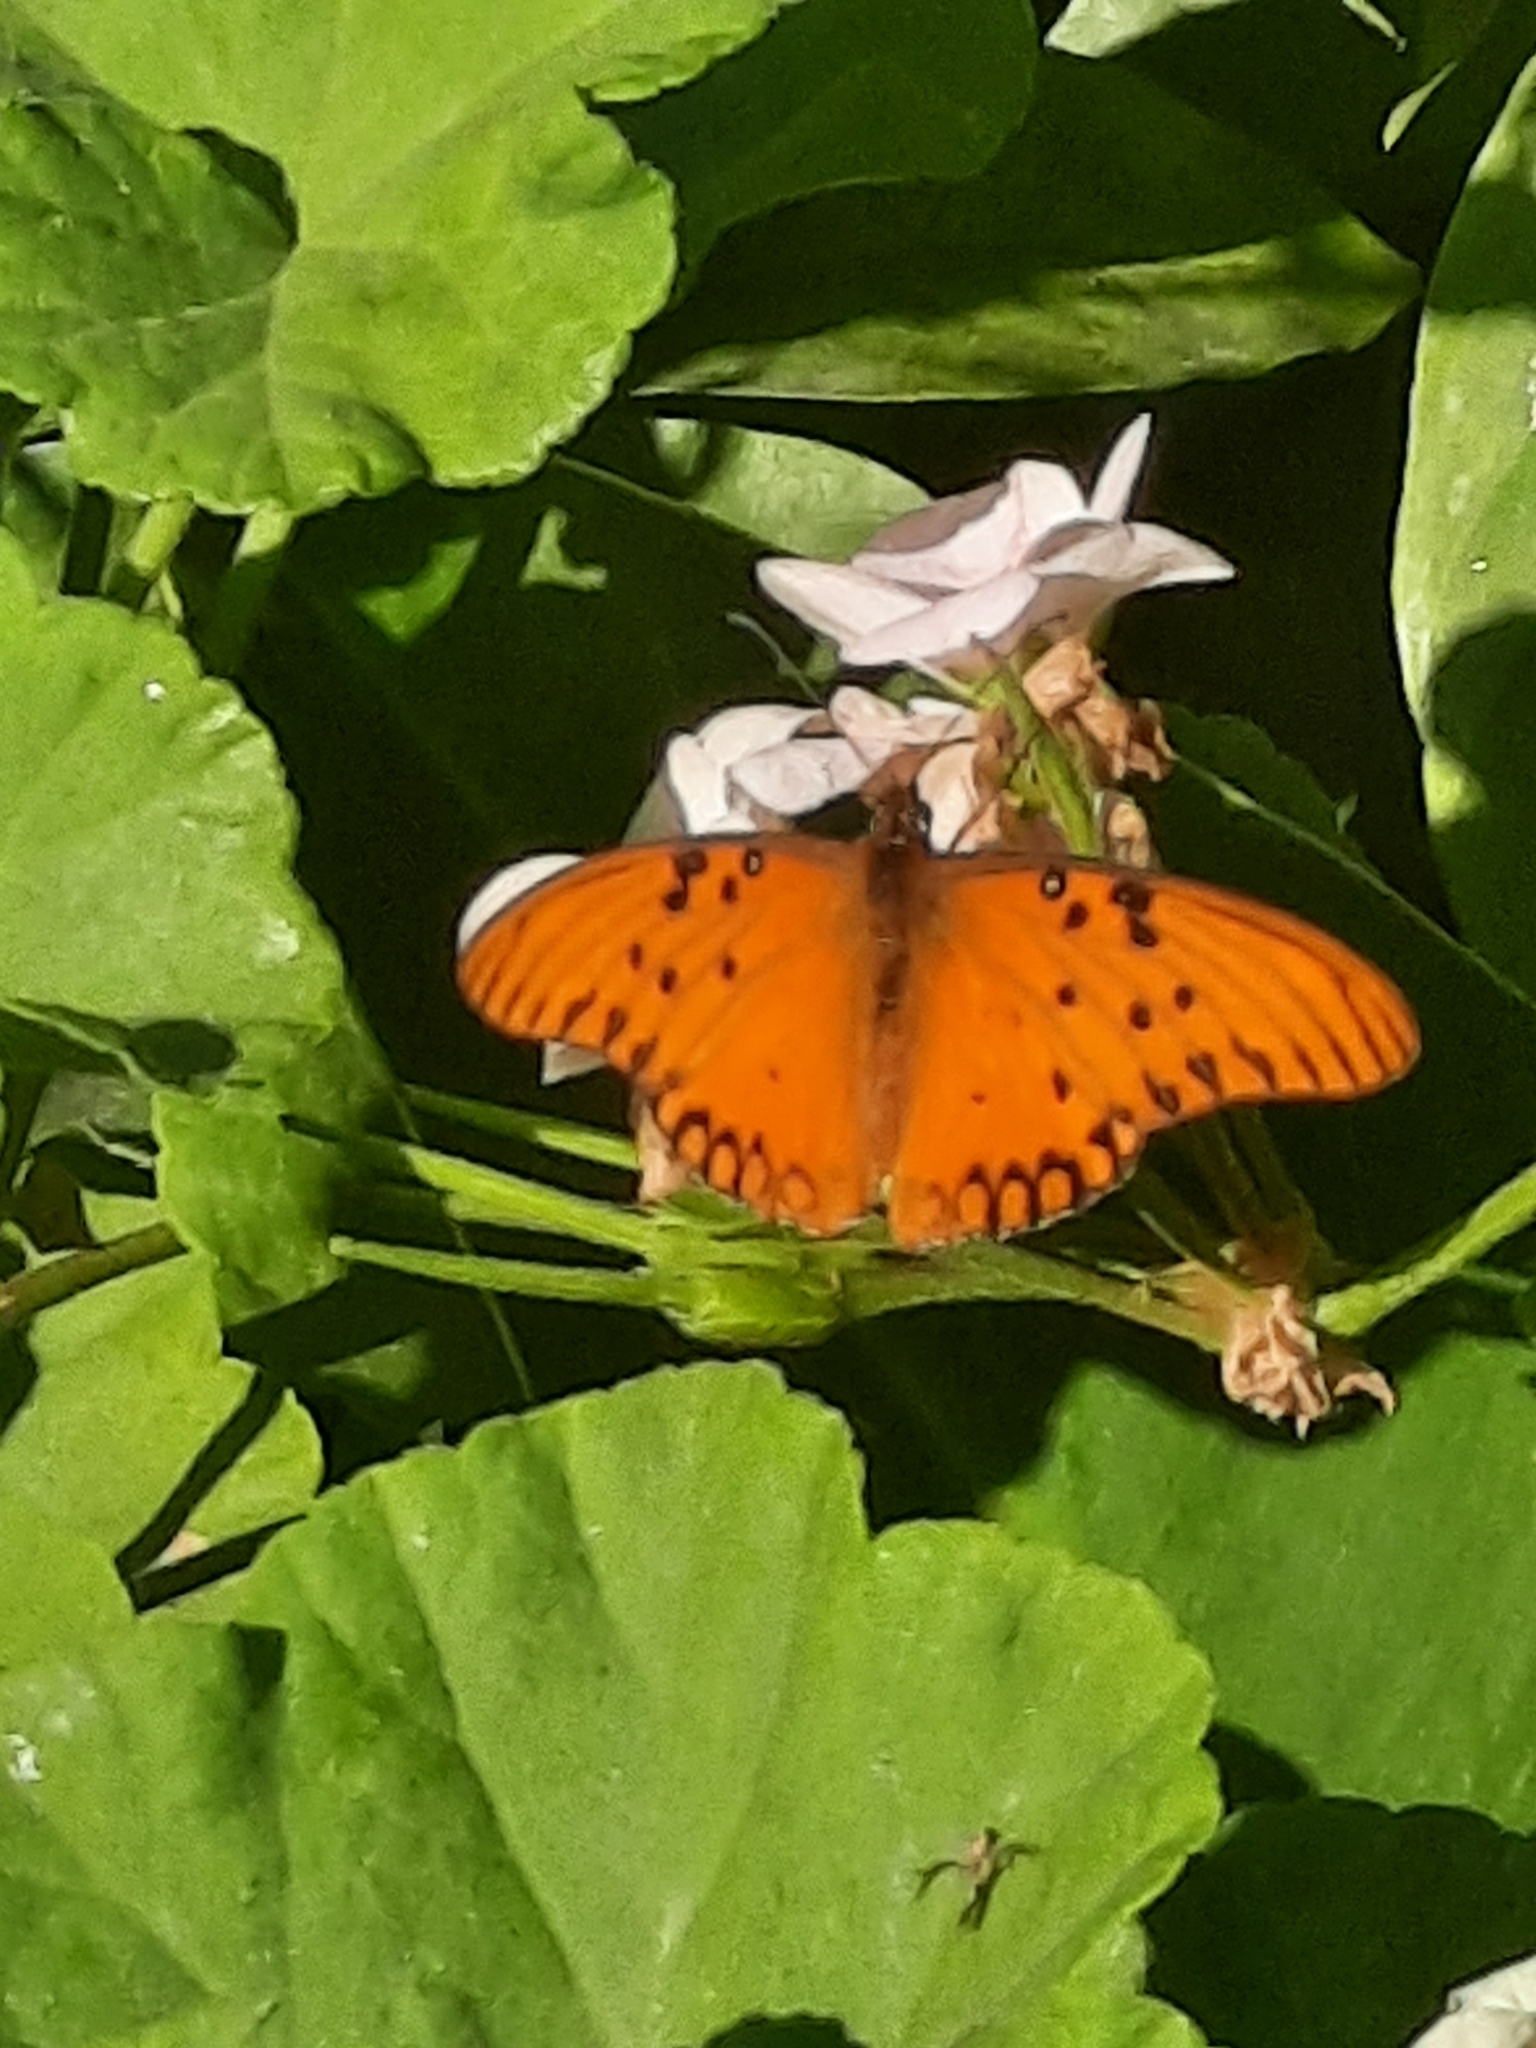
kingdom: Animalia
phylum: Arthropoda
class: Insecta
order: Lepidoptera
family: Nymphalidae
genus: Dione
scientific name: Dione vanillae
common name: Gulf fritillary
